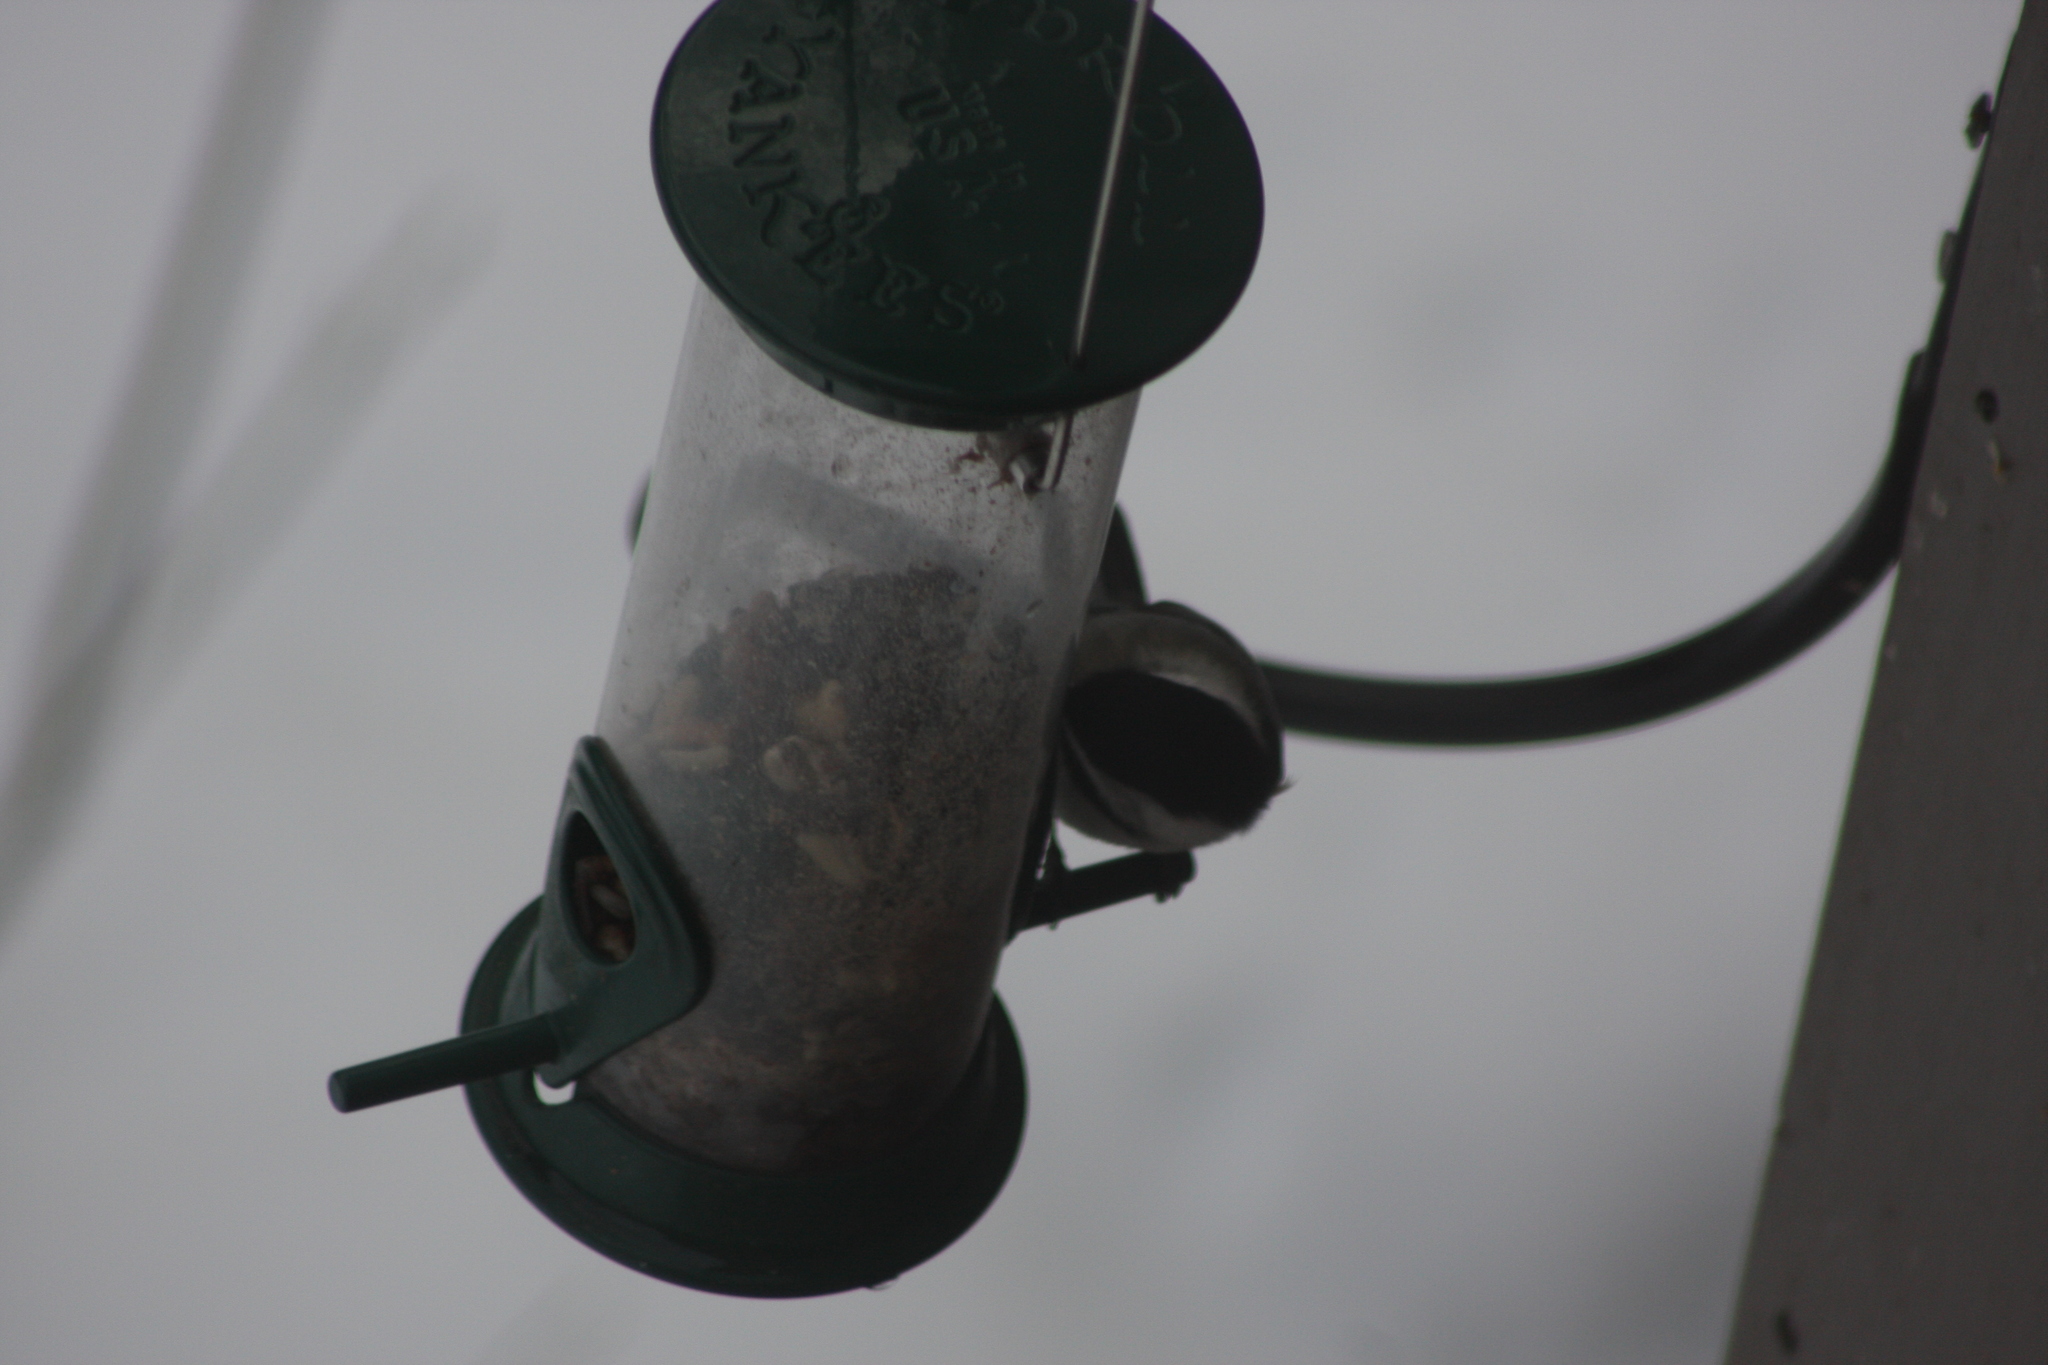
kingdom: Animalia
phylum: Chordata
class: Aves
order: Passeriformes
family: Paridae
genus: Poecile
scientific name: Poecile atricapillus
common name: Black-capped chickadee
